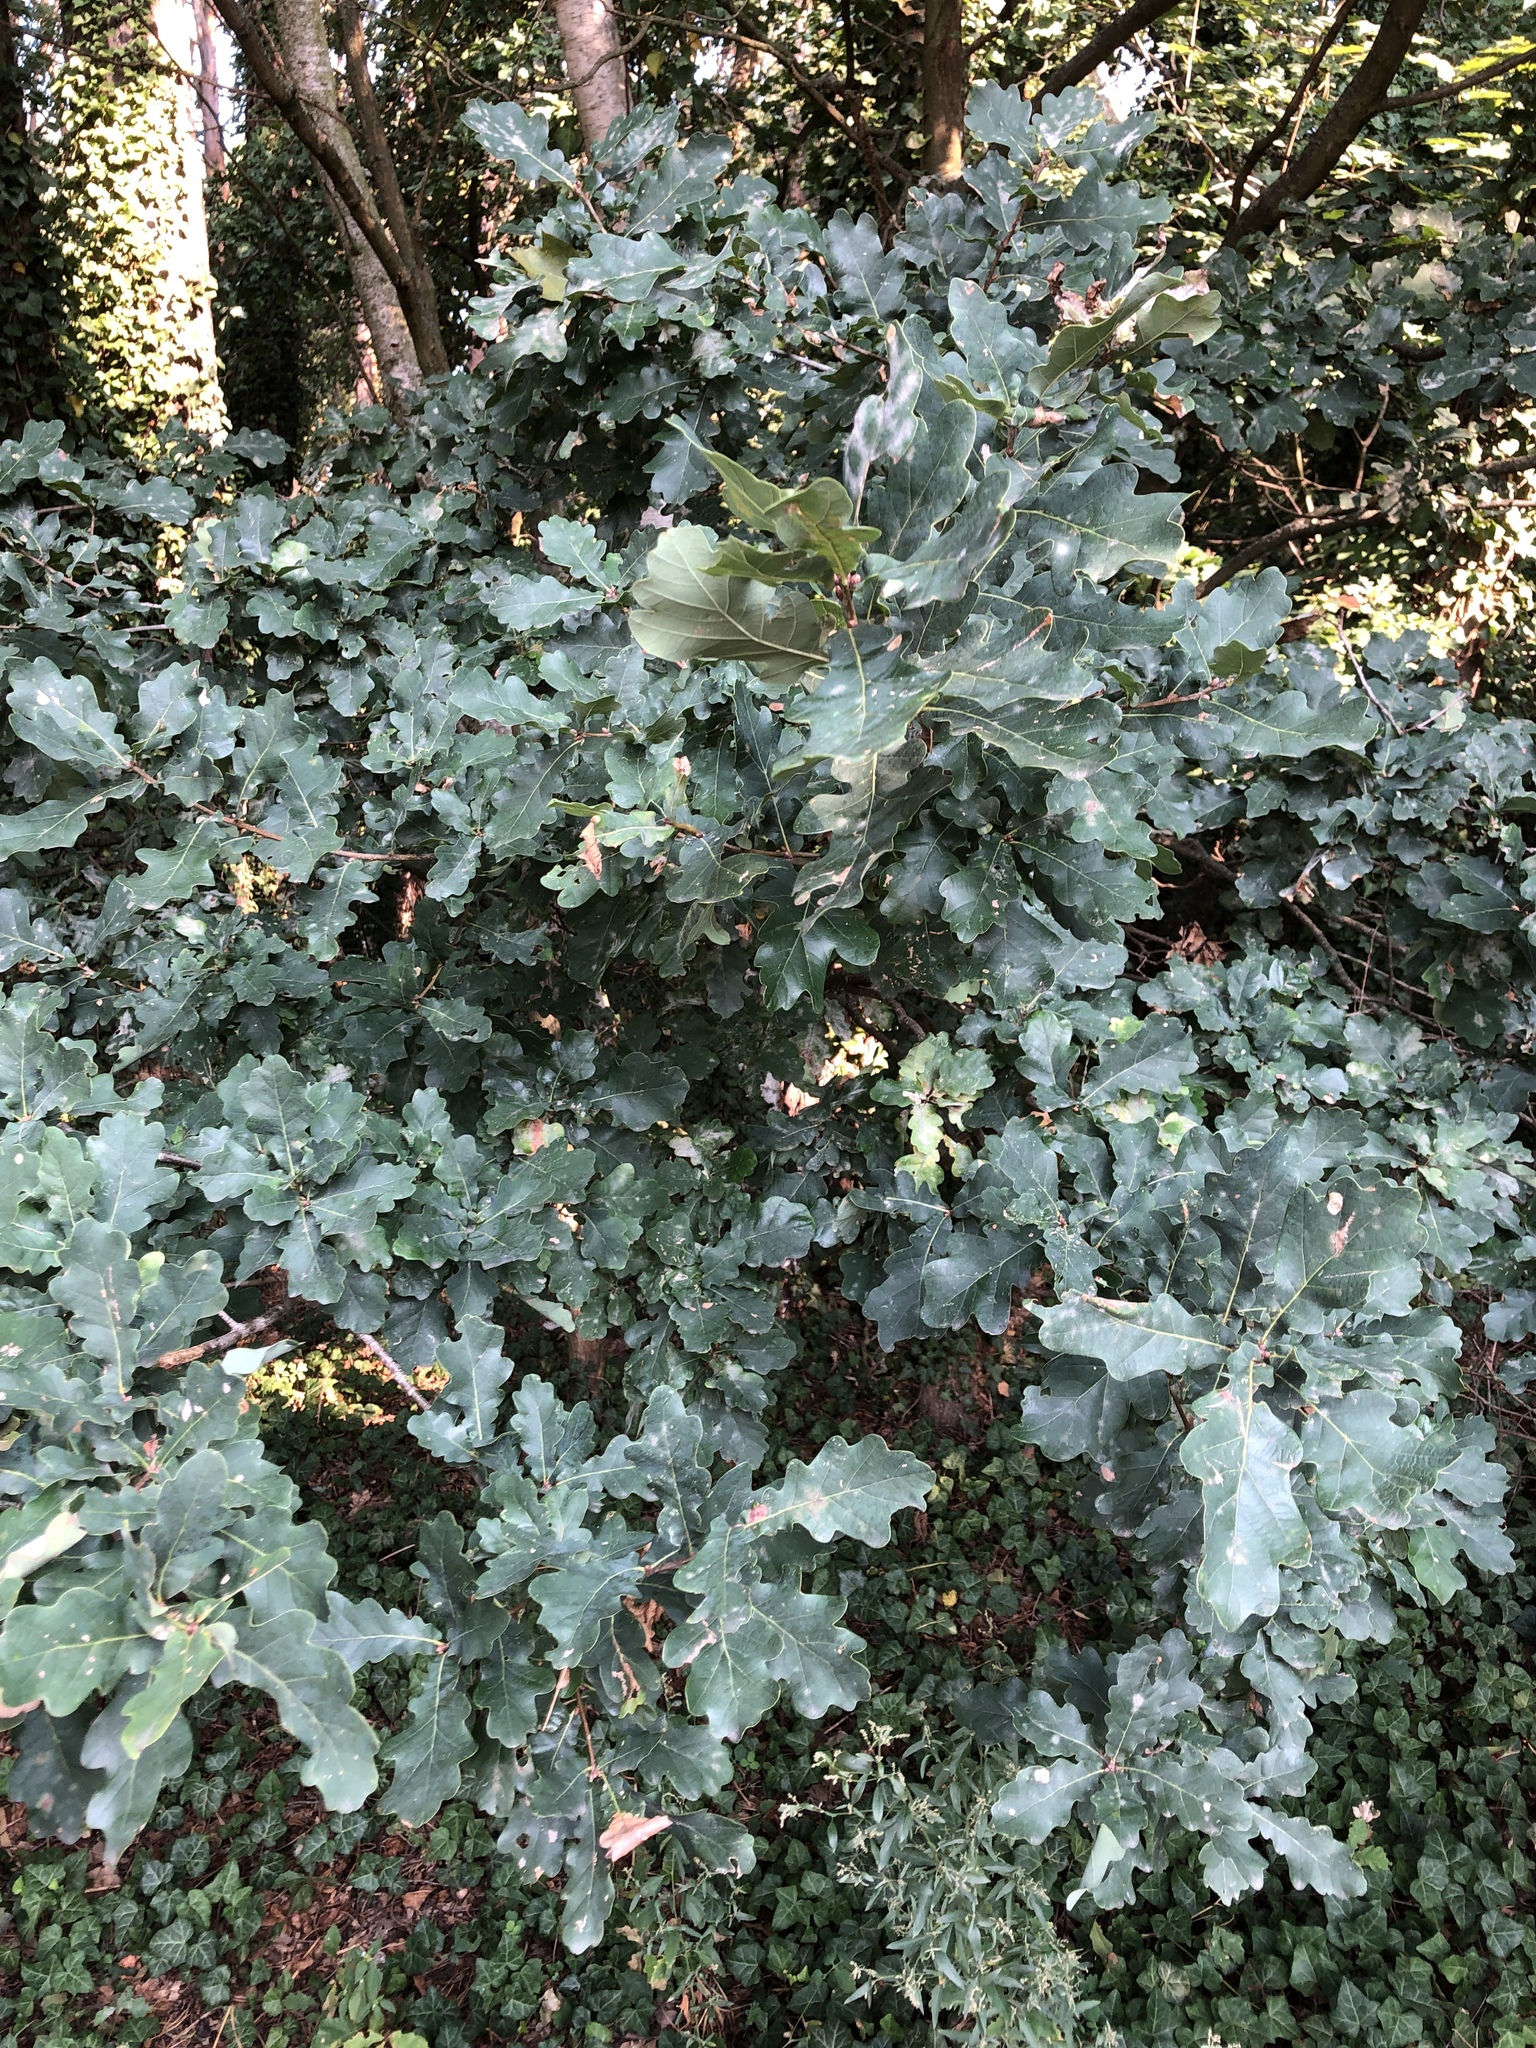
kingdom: Plantae
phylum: Tracheophyta
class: Magnoliopsida
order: Fagales
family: Fagaceae
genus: Quercus
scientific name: Quercus robur
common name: Pedunculate oak
